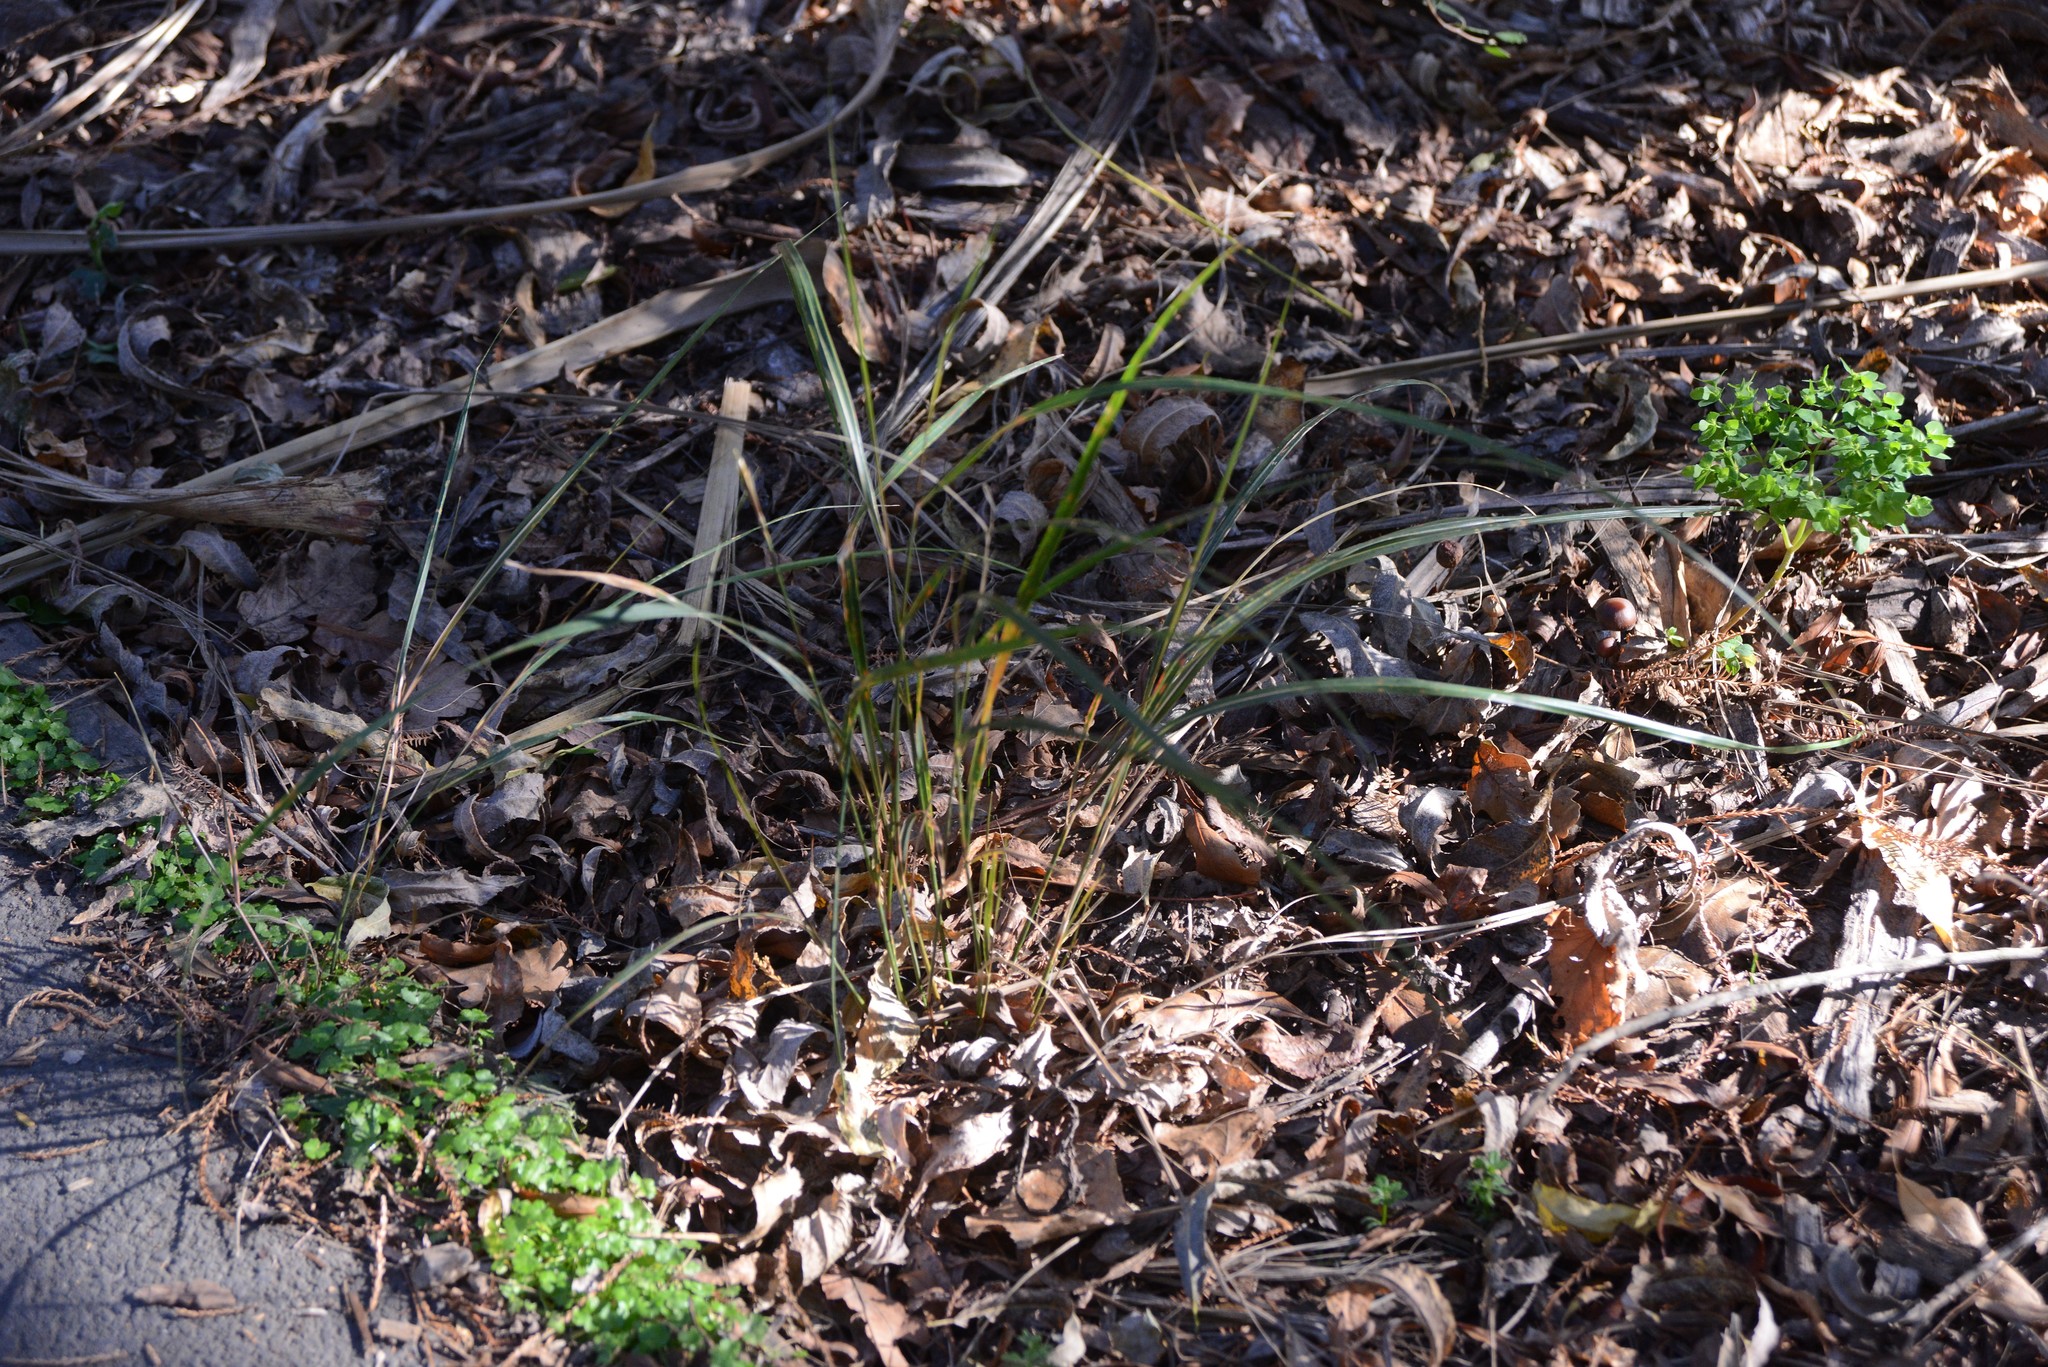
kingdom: Plantae
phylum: Tracheophyta
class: Liliopsida
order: Poales
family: Poaceae
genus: Anemanthele
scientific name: Anemanthele lessoniana
